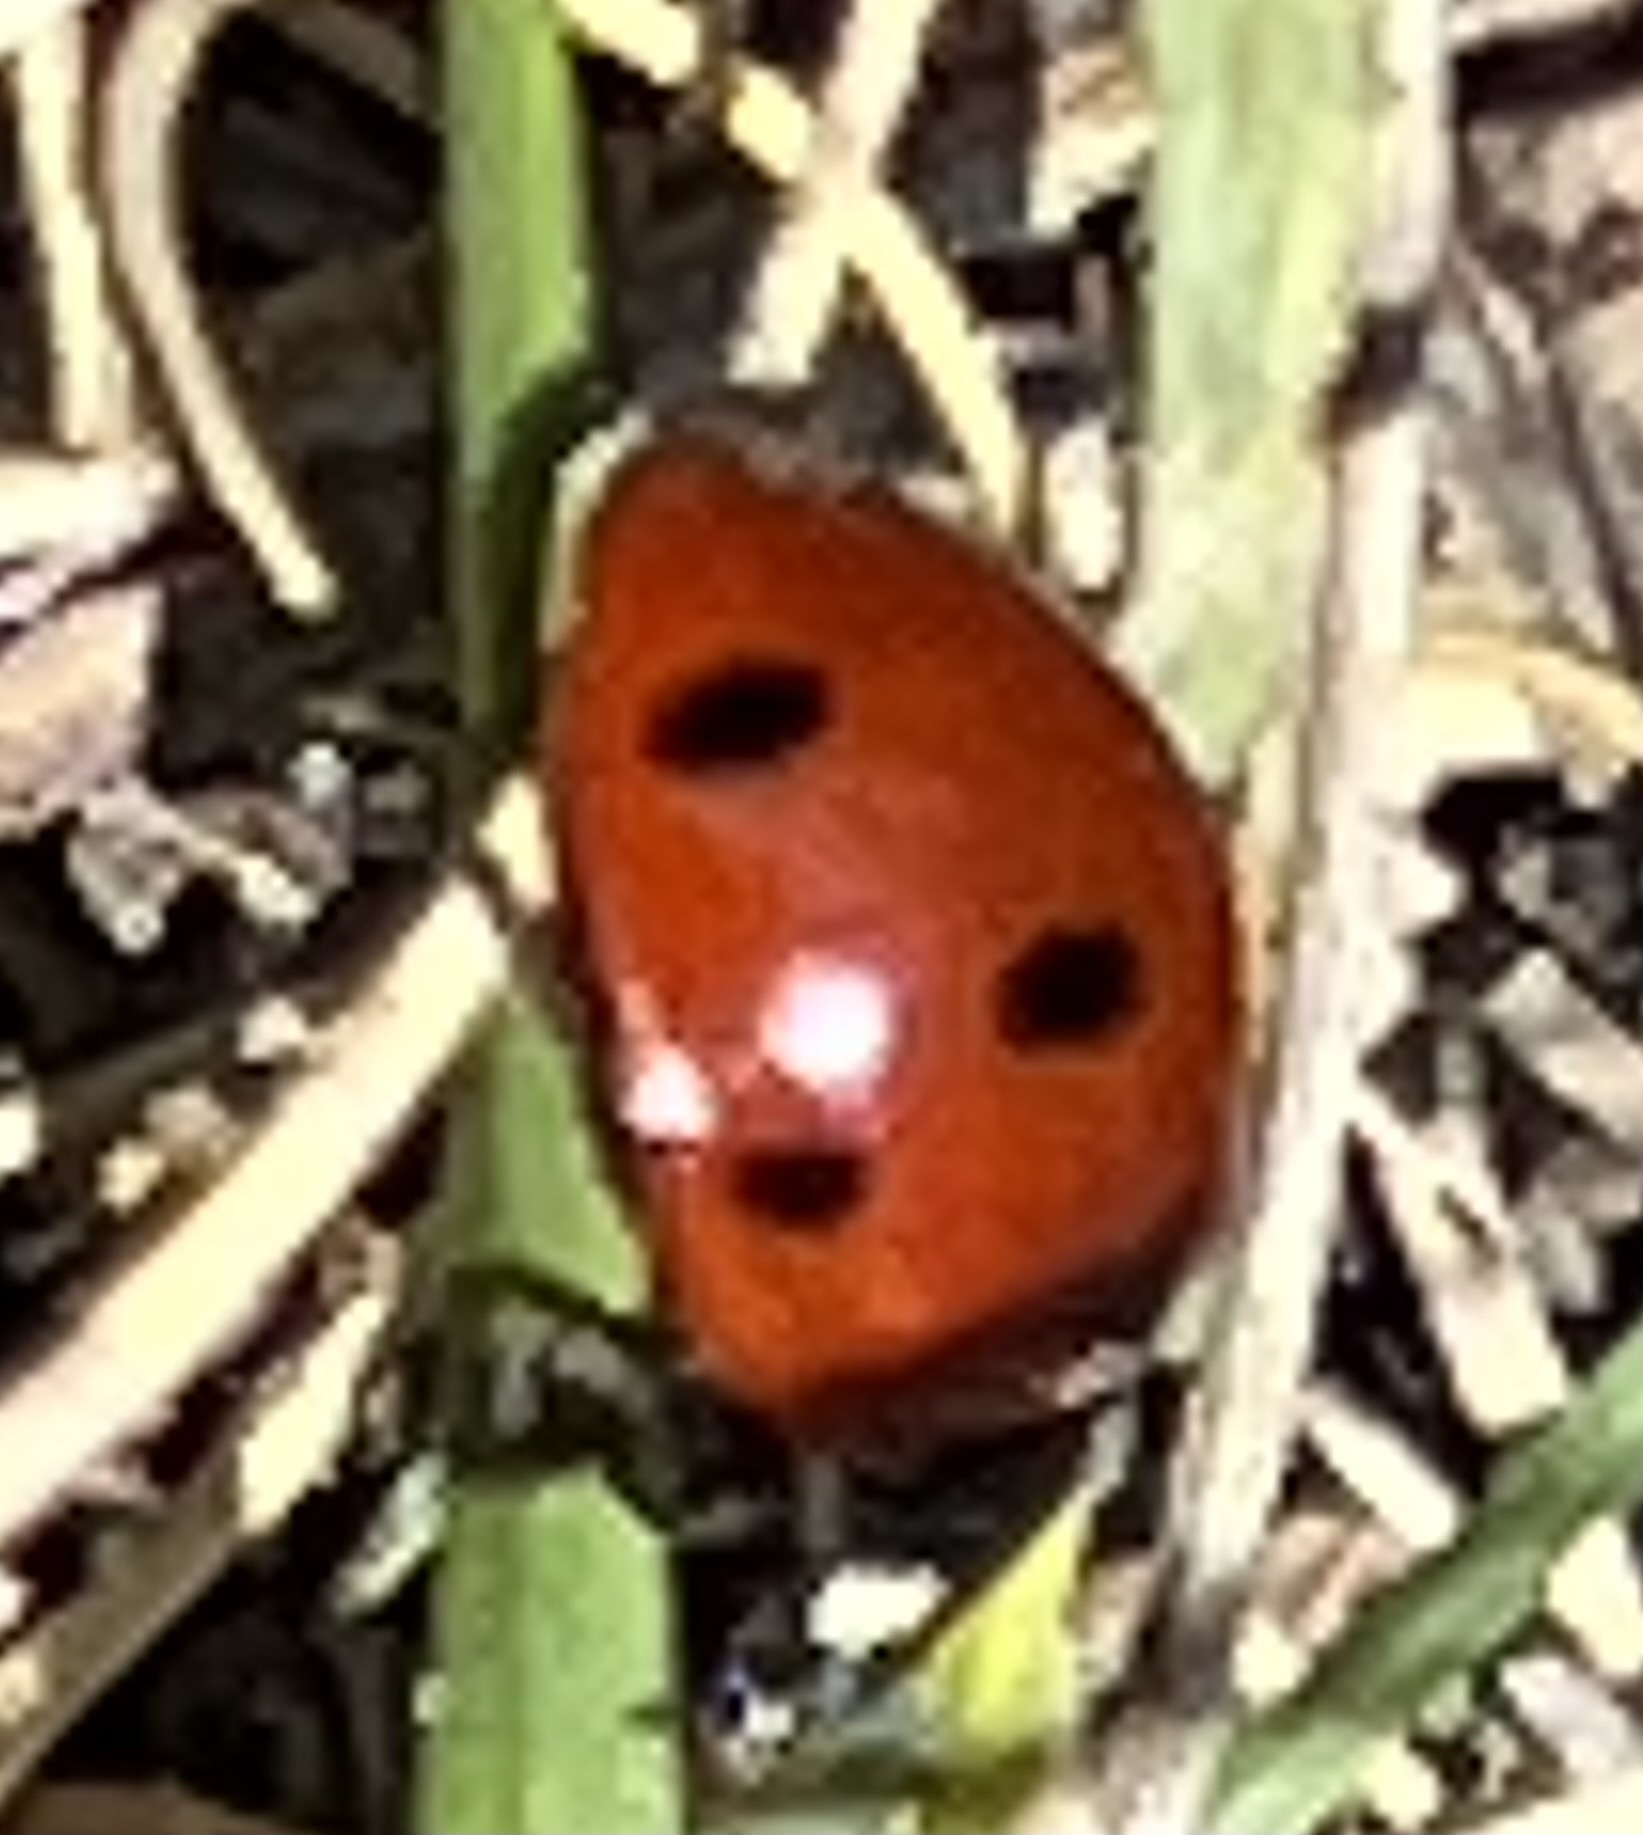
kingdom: Animalia
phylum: Arthropoda
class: Insecta
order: Coleoptera
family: Coccinellidae
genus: Coccinella
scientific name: Coccinella septempunctata
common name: Sevenspotted lady beetle
